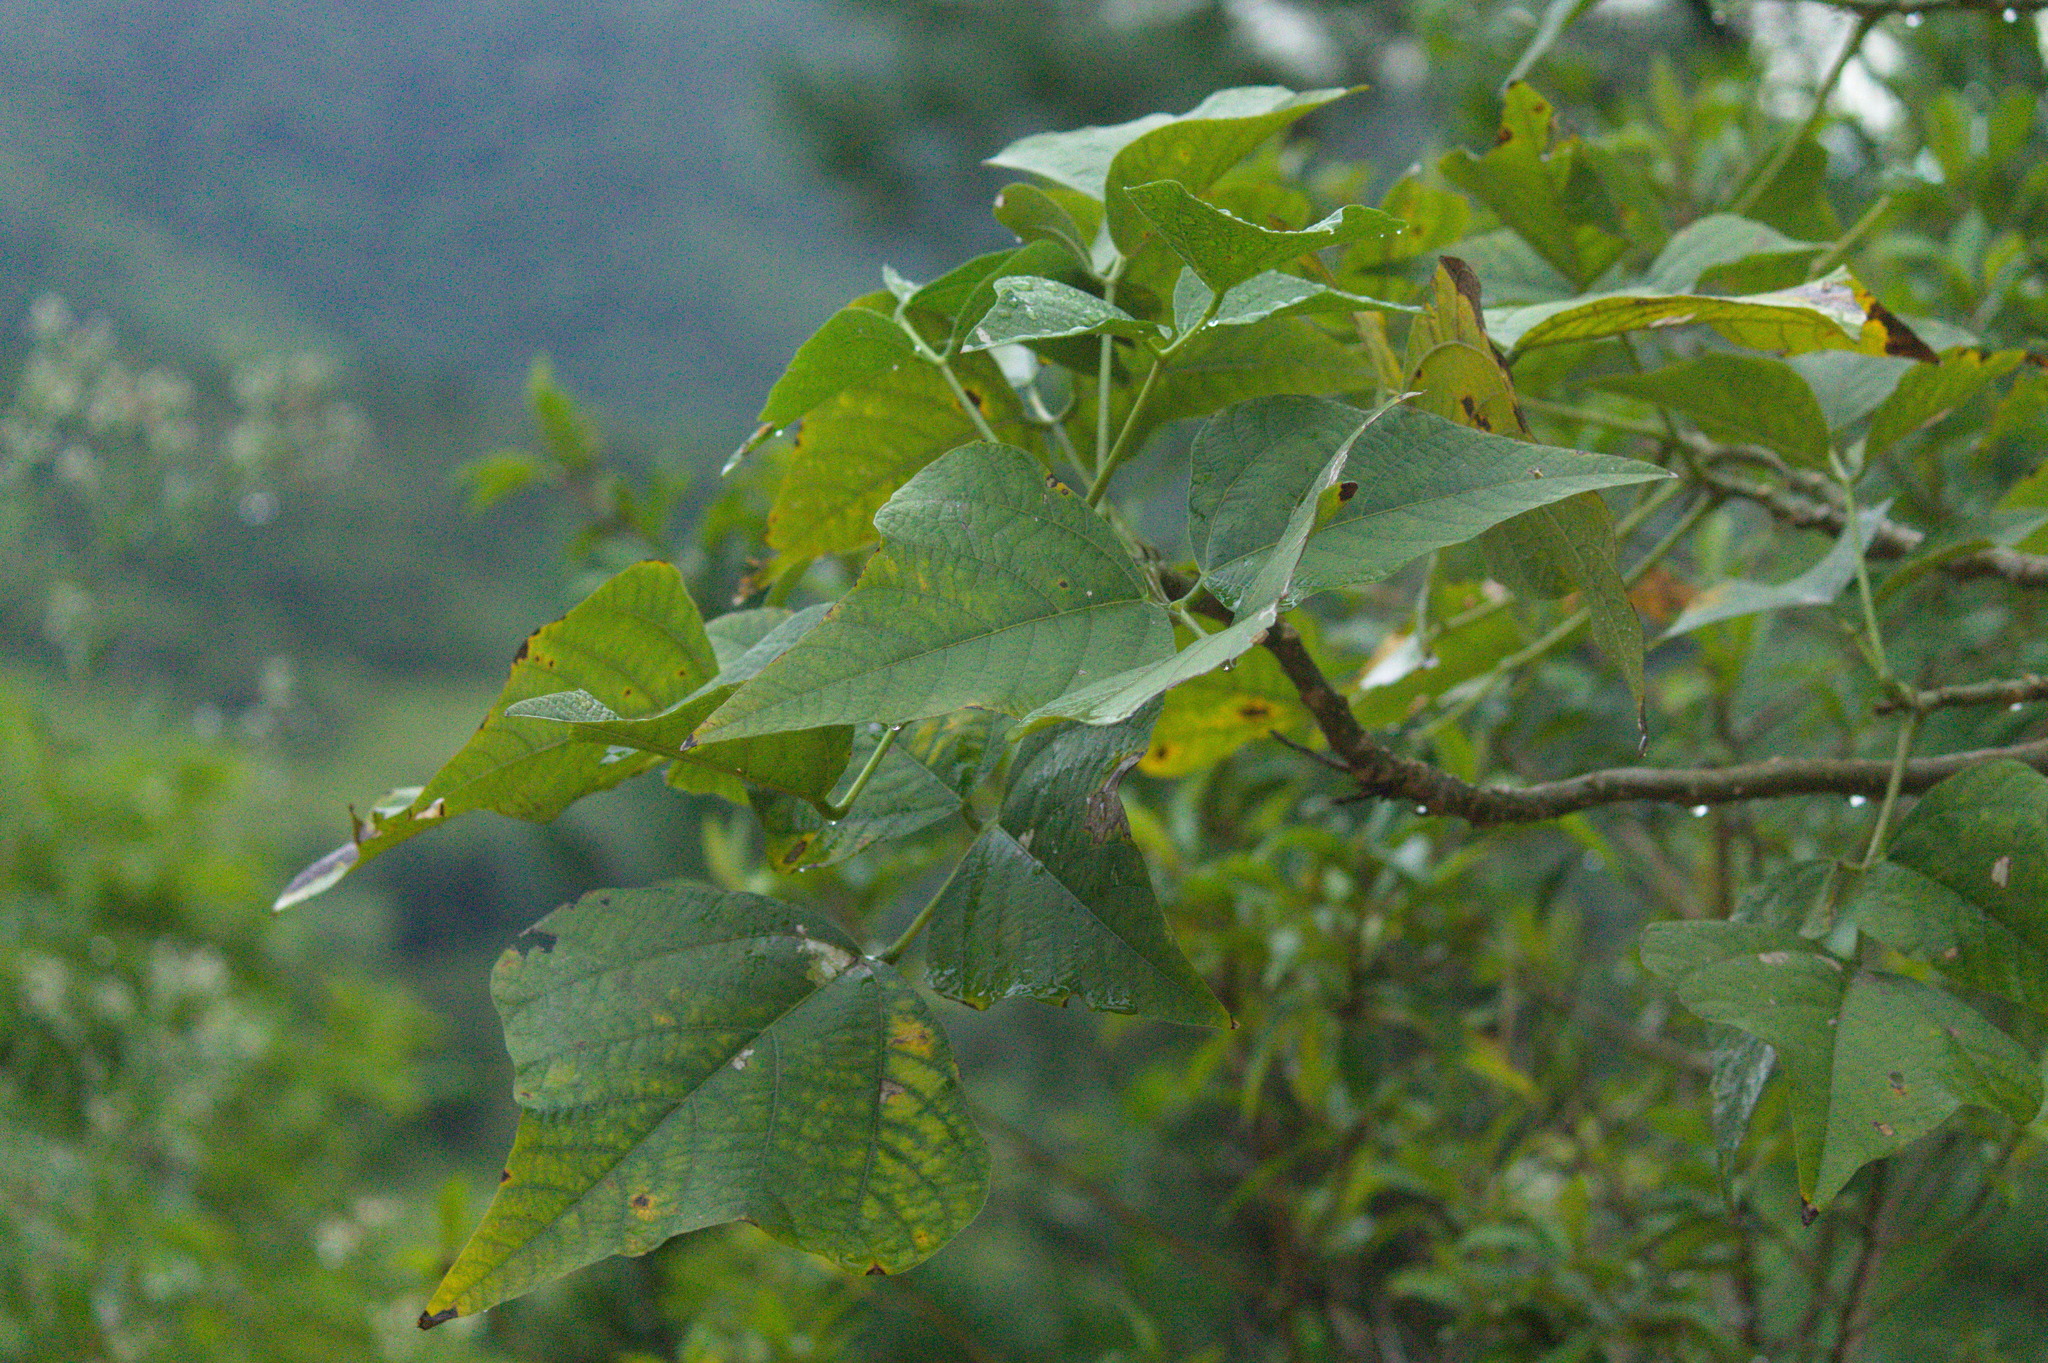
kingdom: Plantae
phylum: Tracheophyta
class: Magnoliopsida
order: Fabales
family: Fabaceae
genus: Erythrina
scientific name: Erythrina speciosa
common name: Coral tree
